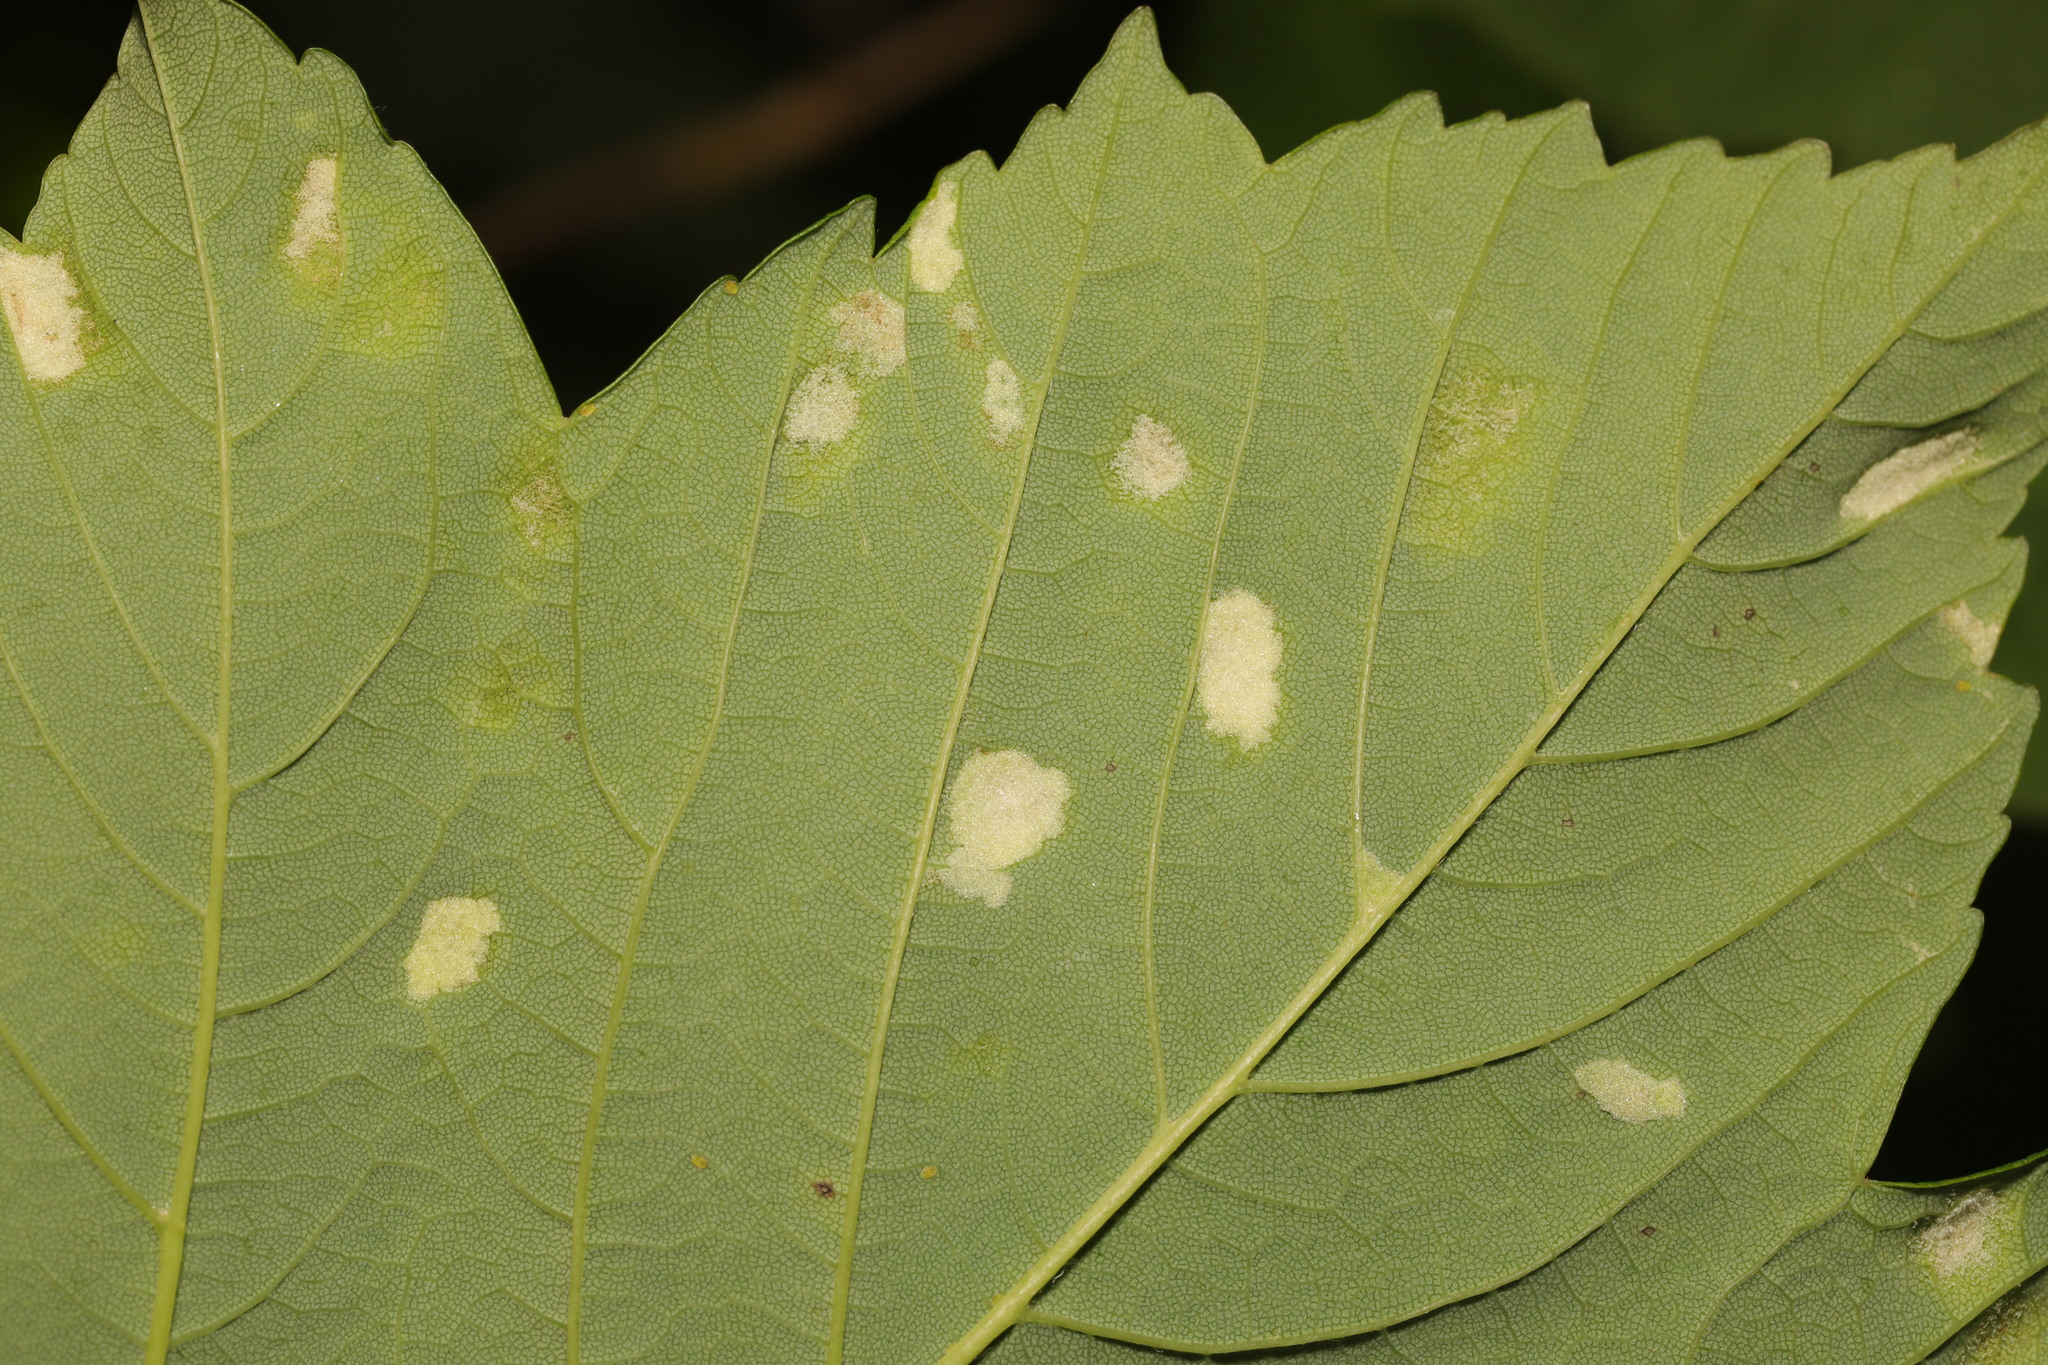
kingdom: Animalia
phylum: Arthropoda
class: Arachnida
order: Trombidiformes
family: Eriophyidae
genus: Aceria
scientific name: Aceria pseudoplatani
